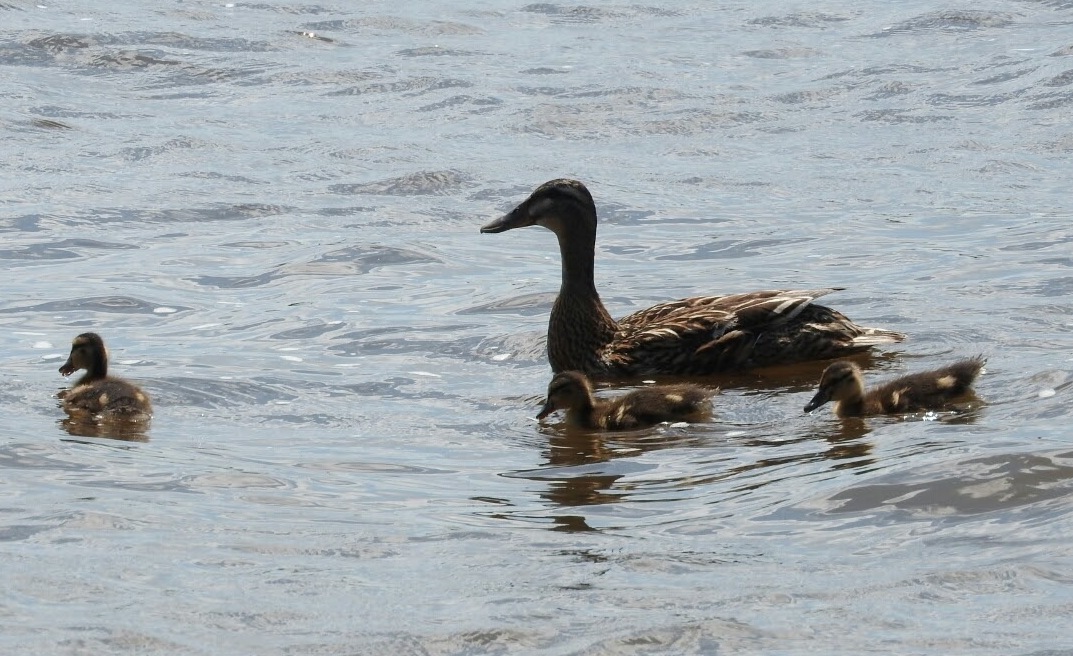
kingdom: Animalia
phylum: Chordata
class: Aves
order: Anseriformes
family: Anatidae
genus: Anas
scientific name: Anas platyrhynchos
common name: Mallard
